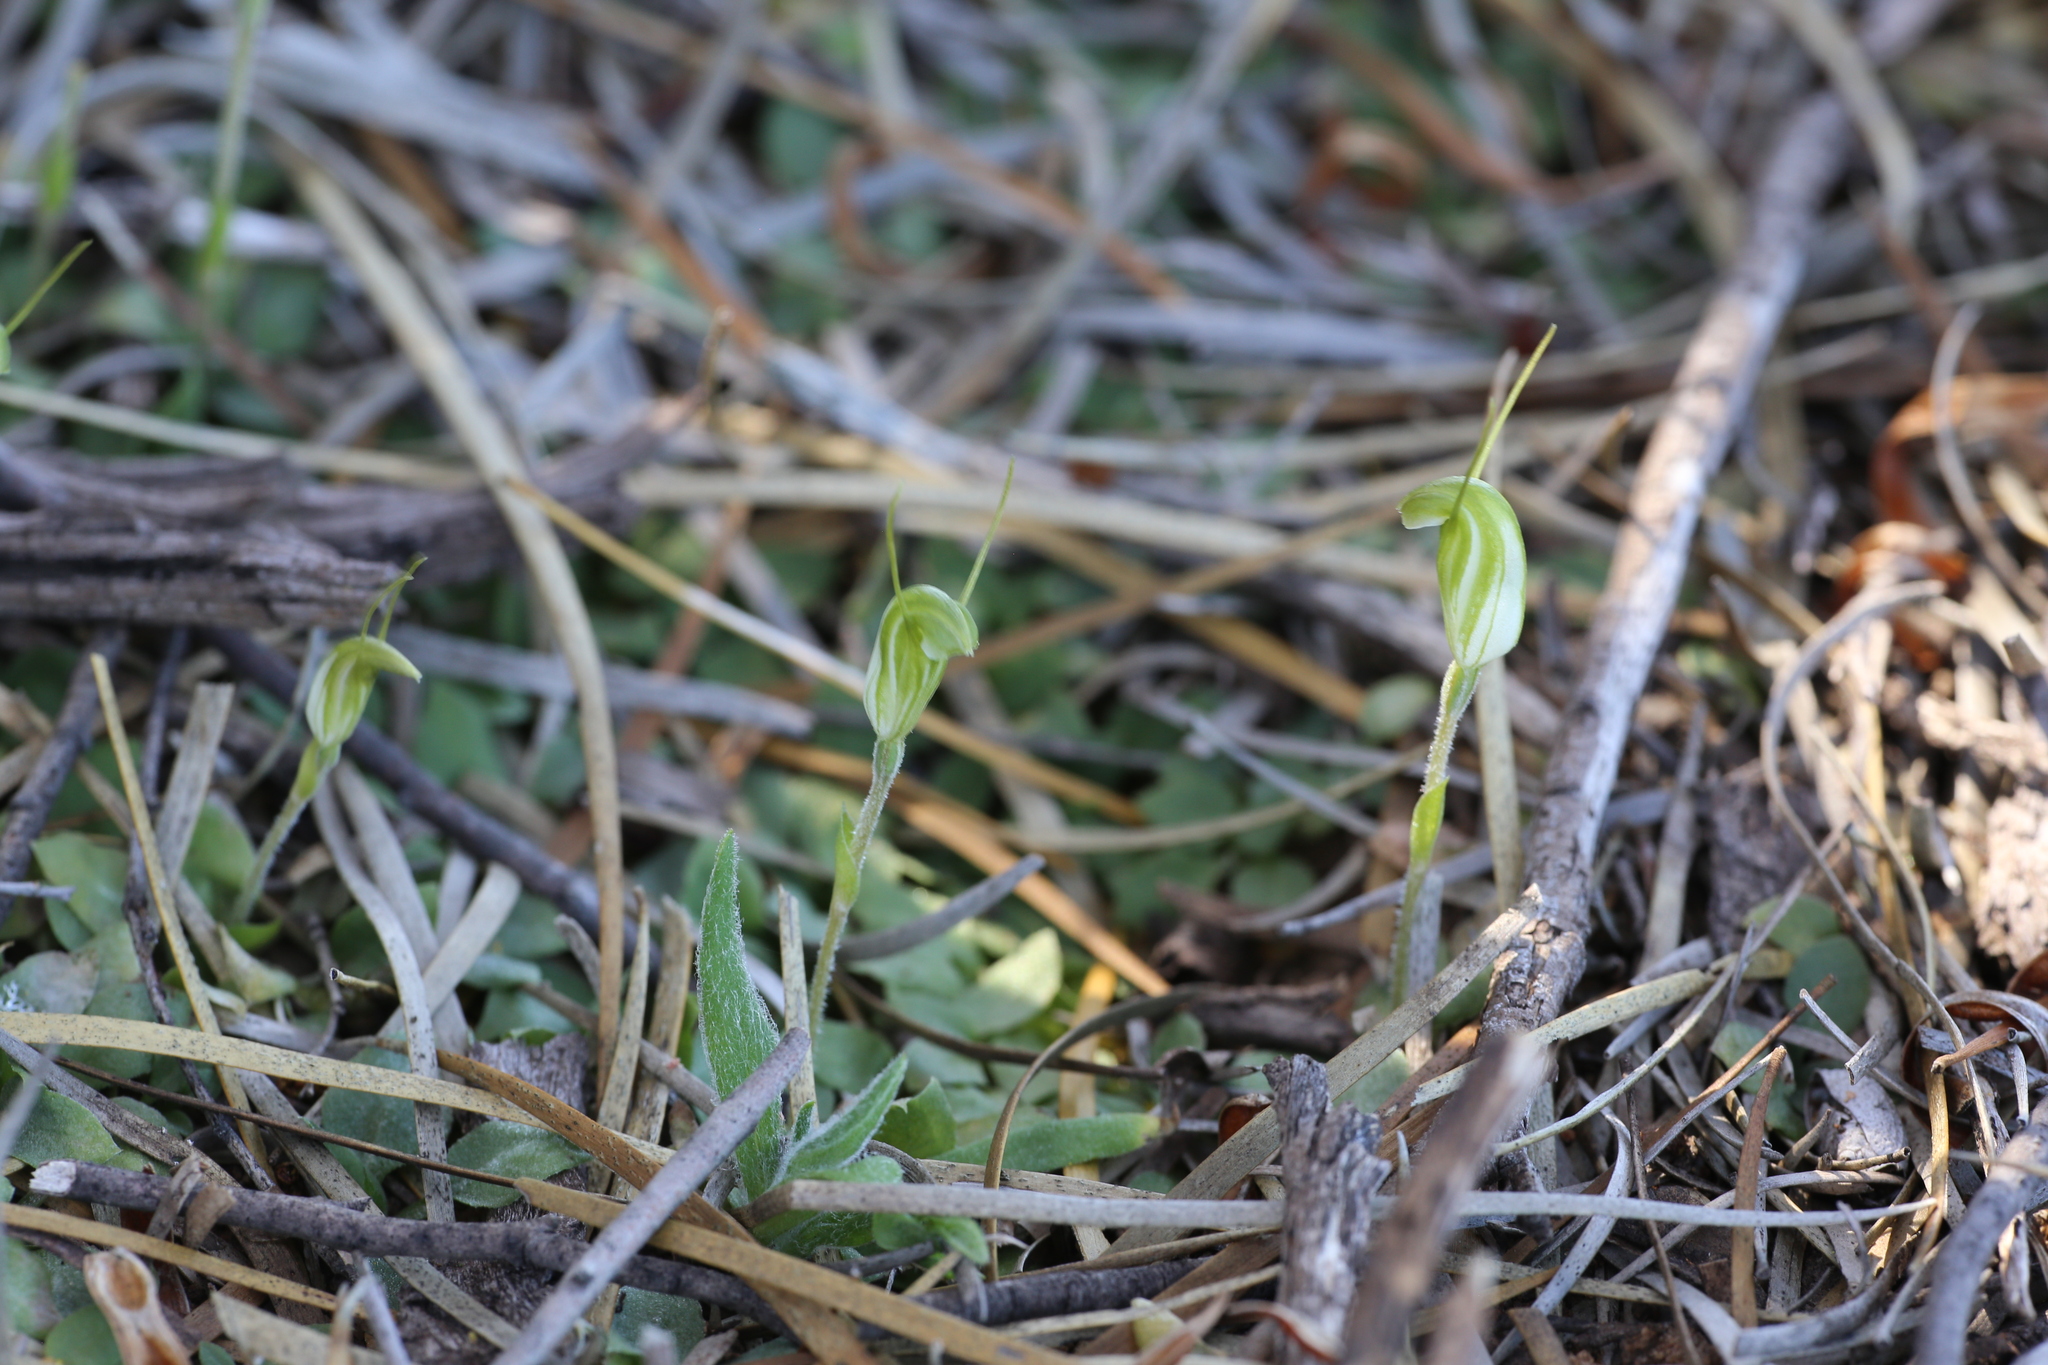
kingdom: Plantae
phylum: Tracheophyta
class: Liliopsida
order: Asparagales
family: Orchidaceae
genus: Pterostylis
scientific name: Pterostylis setulosa
